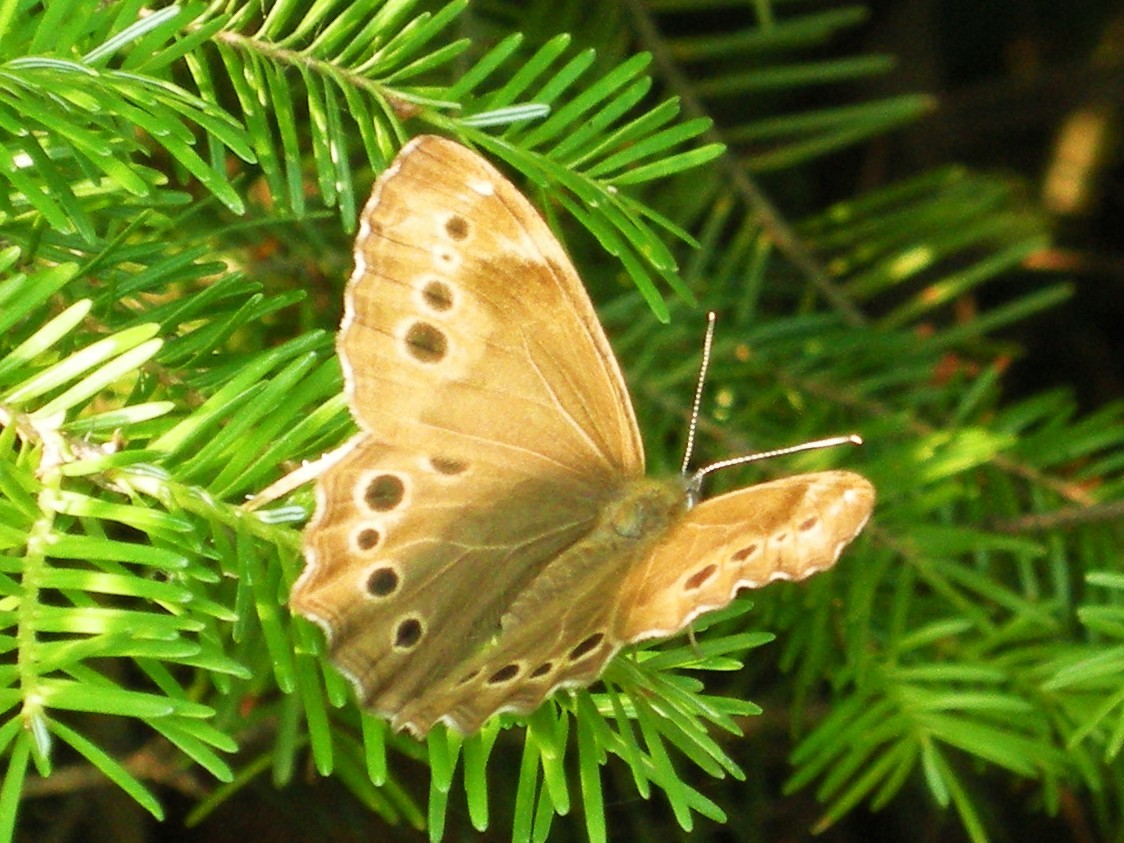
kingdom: Animalia
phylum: Arthropoda
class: Insecta
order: Lepidoptera
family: Nymphalidae
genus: Lethe
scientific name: Lethe anthedon
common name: Northern pearly-eye
